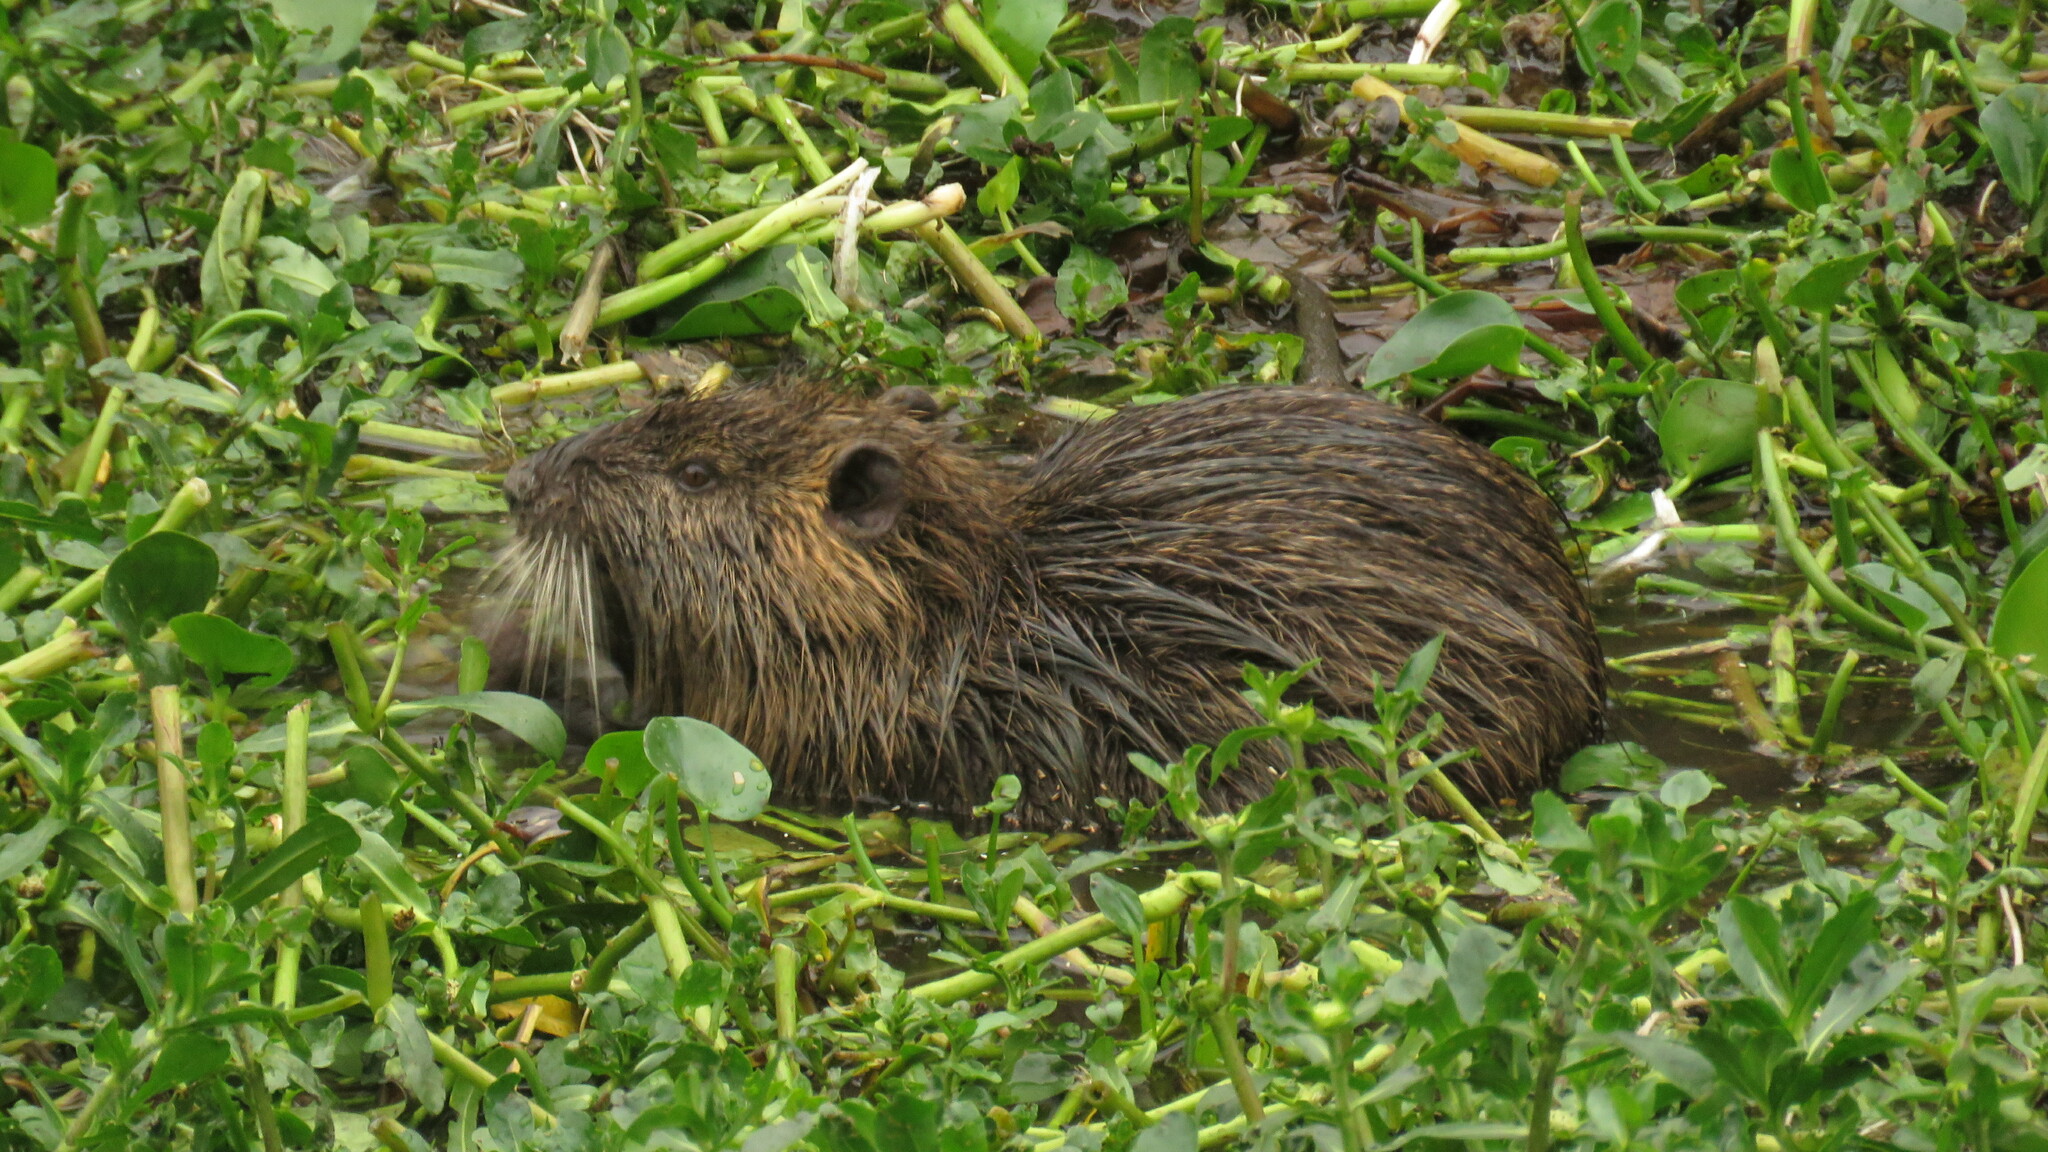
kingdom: Animalia
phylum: Chordata
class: Mammalia
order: Rodentia
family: Myocastoridae
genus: Myocastor
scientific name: Myocastor coypus
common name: Coypu
